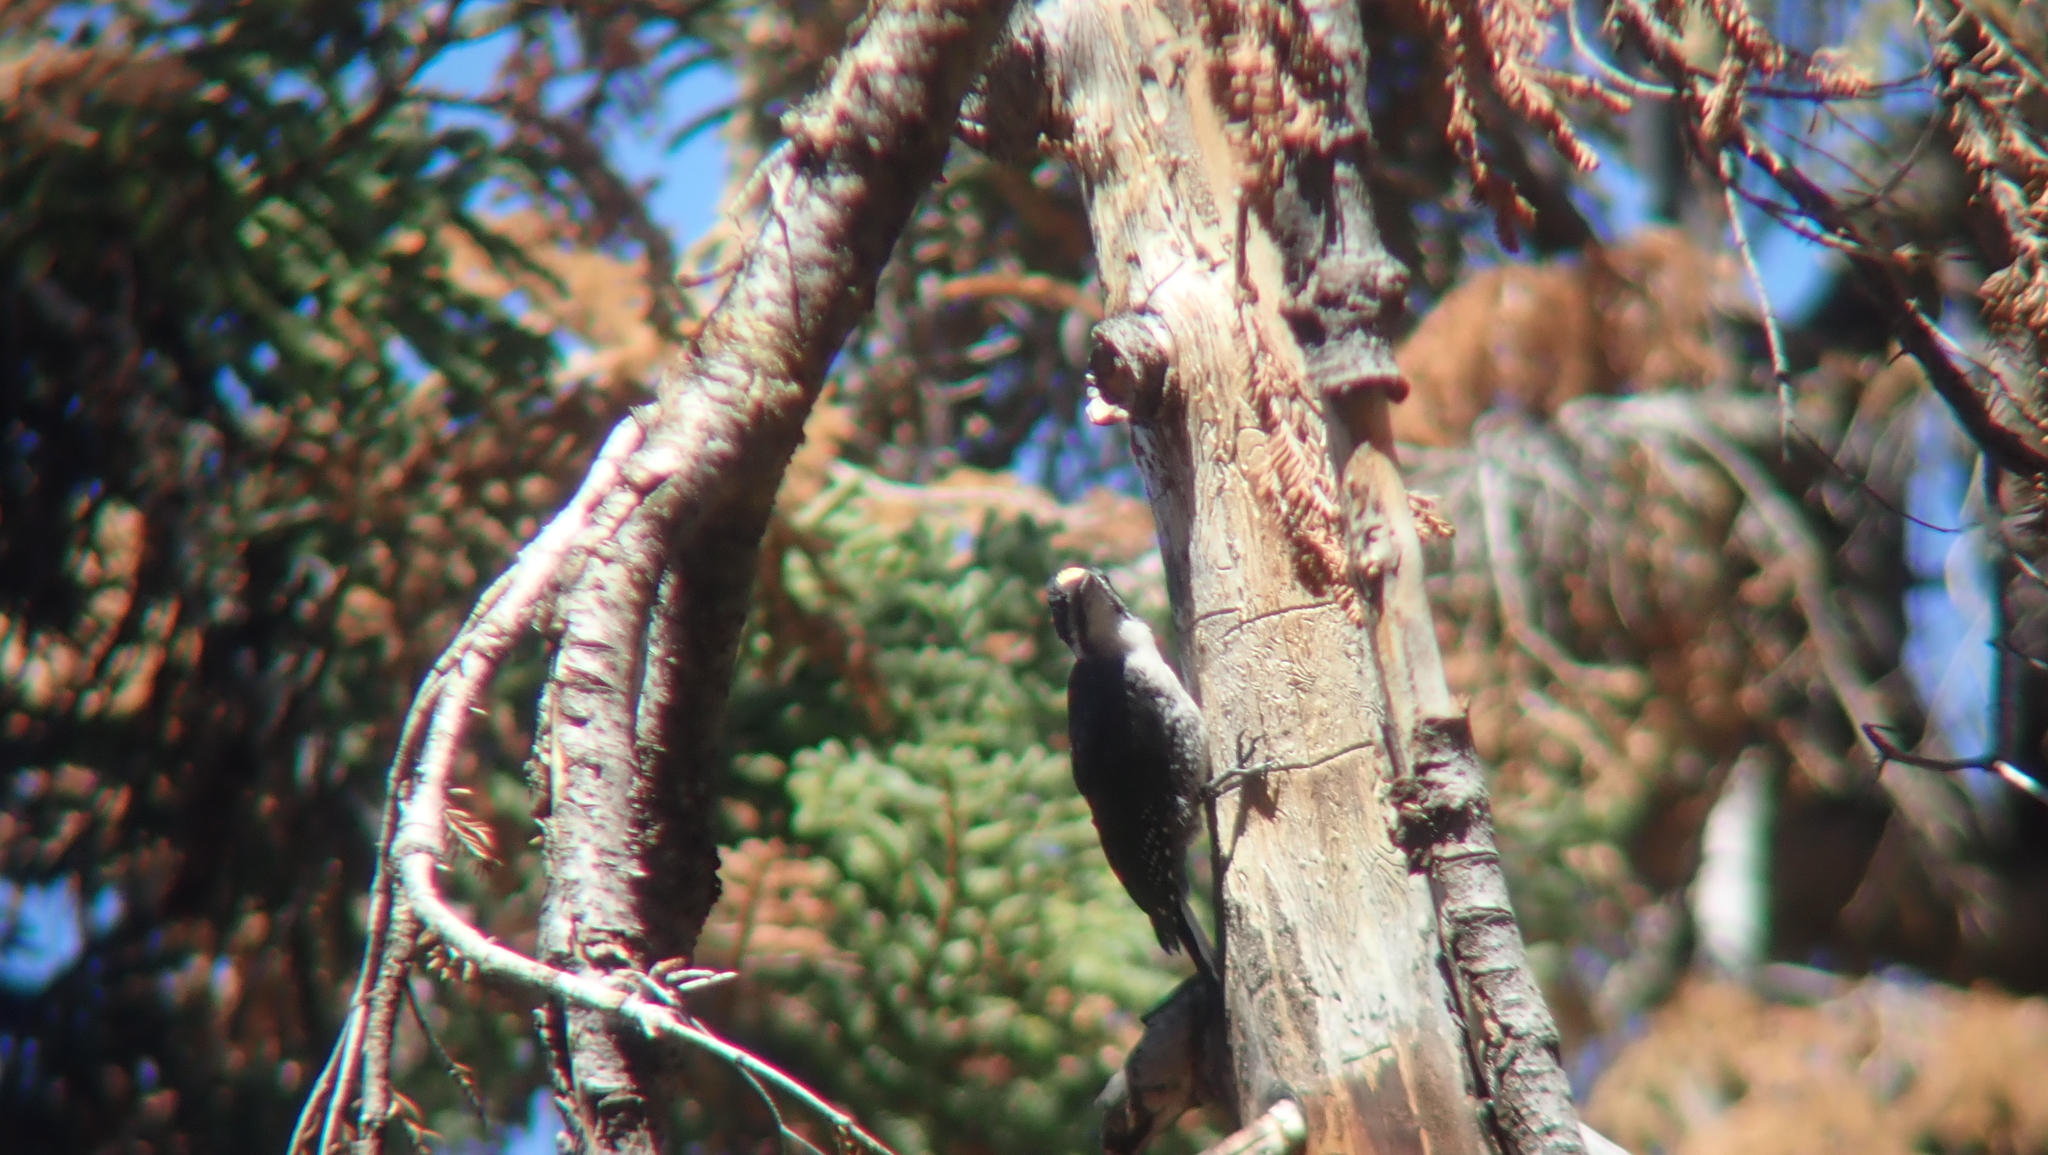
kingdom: Animalia
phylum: Chordata
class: Aves
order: Piciformes
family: Picidae
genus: Picoides
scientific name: Picoides arcticus
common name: Black-backed woodpecker
